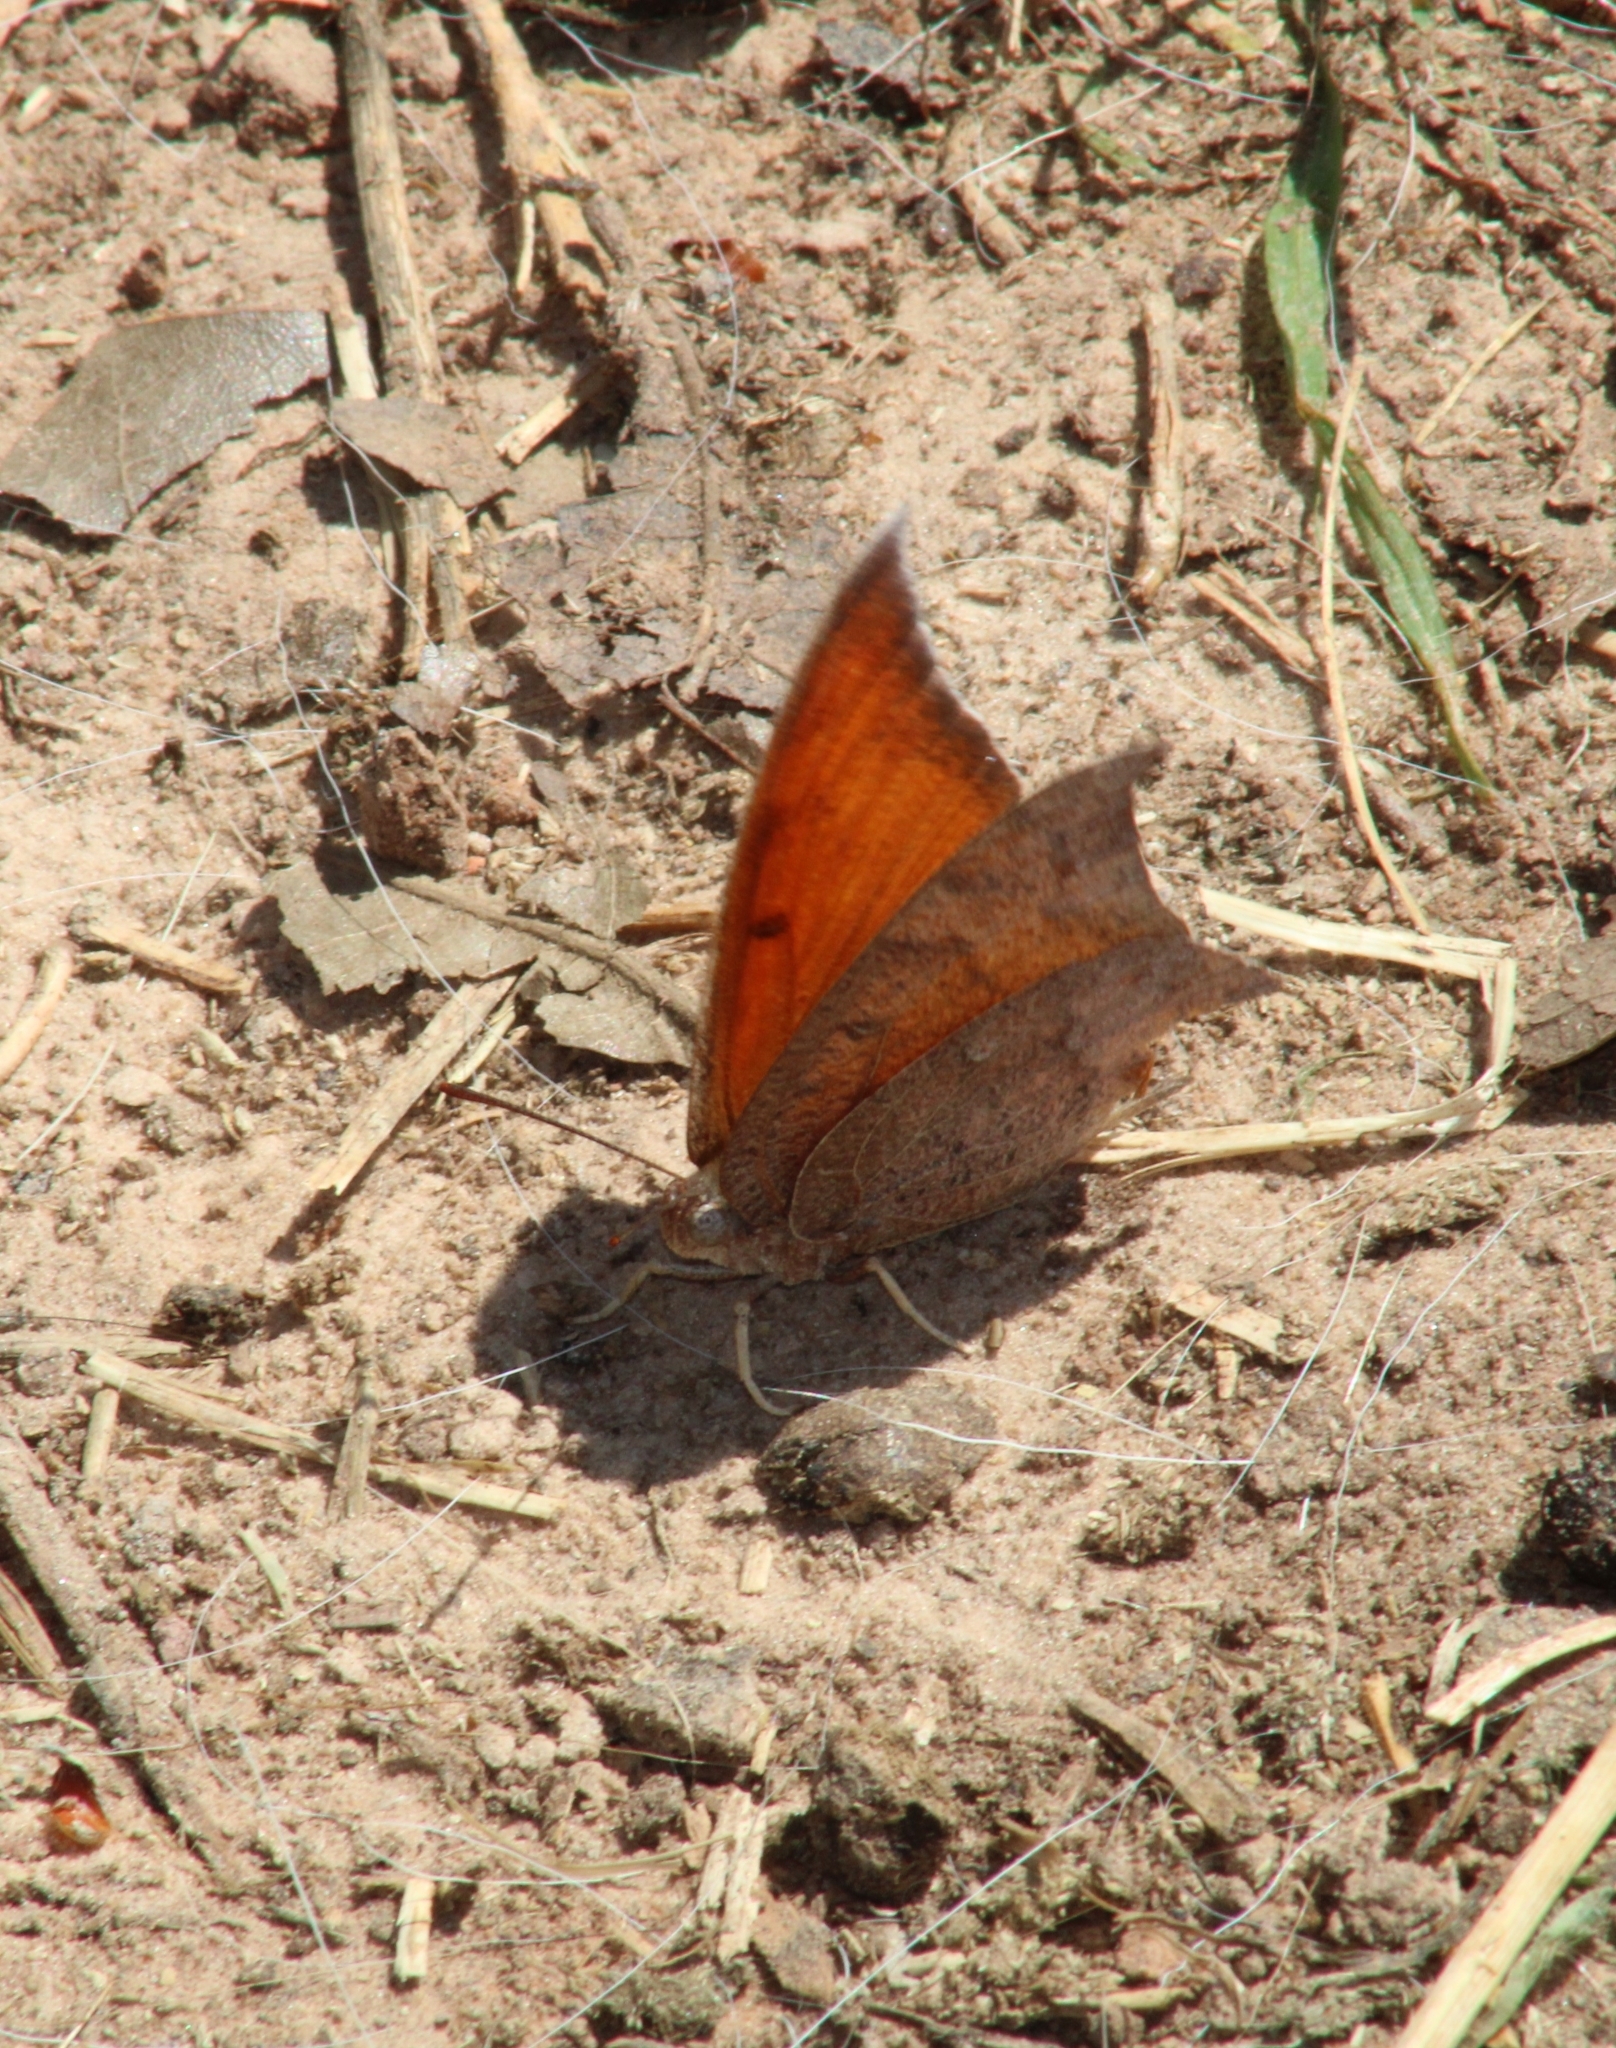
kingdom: Animalia
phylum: Arthropoda
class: Insecta
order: Lepidoptera
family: Nymphalidae
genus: Anaea
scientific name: Anaea andria
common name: Goatweed leafwing
